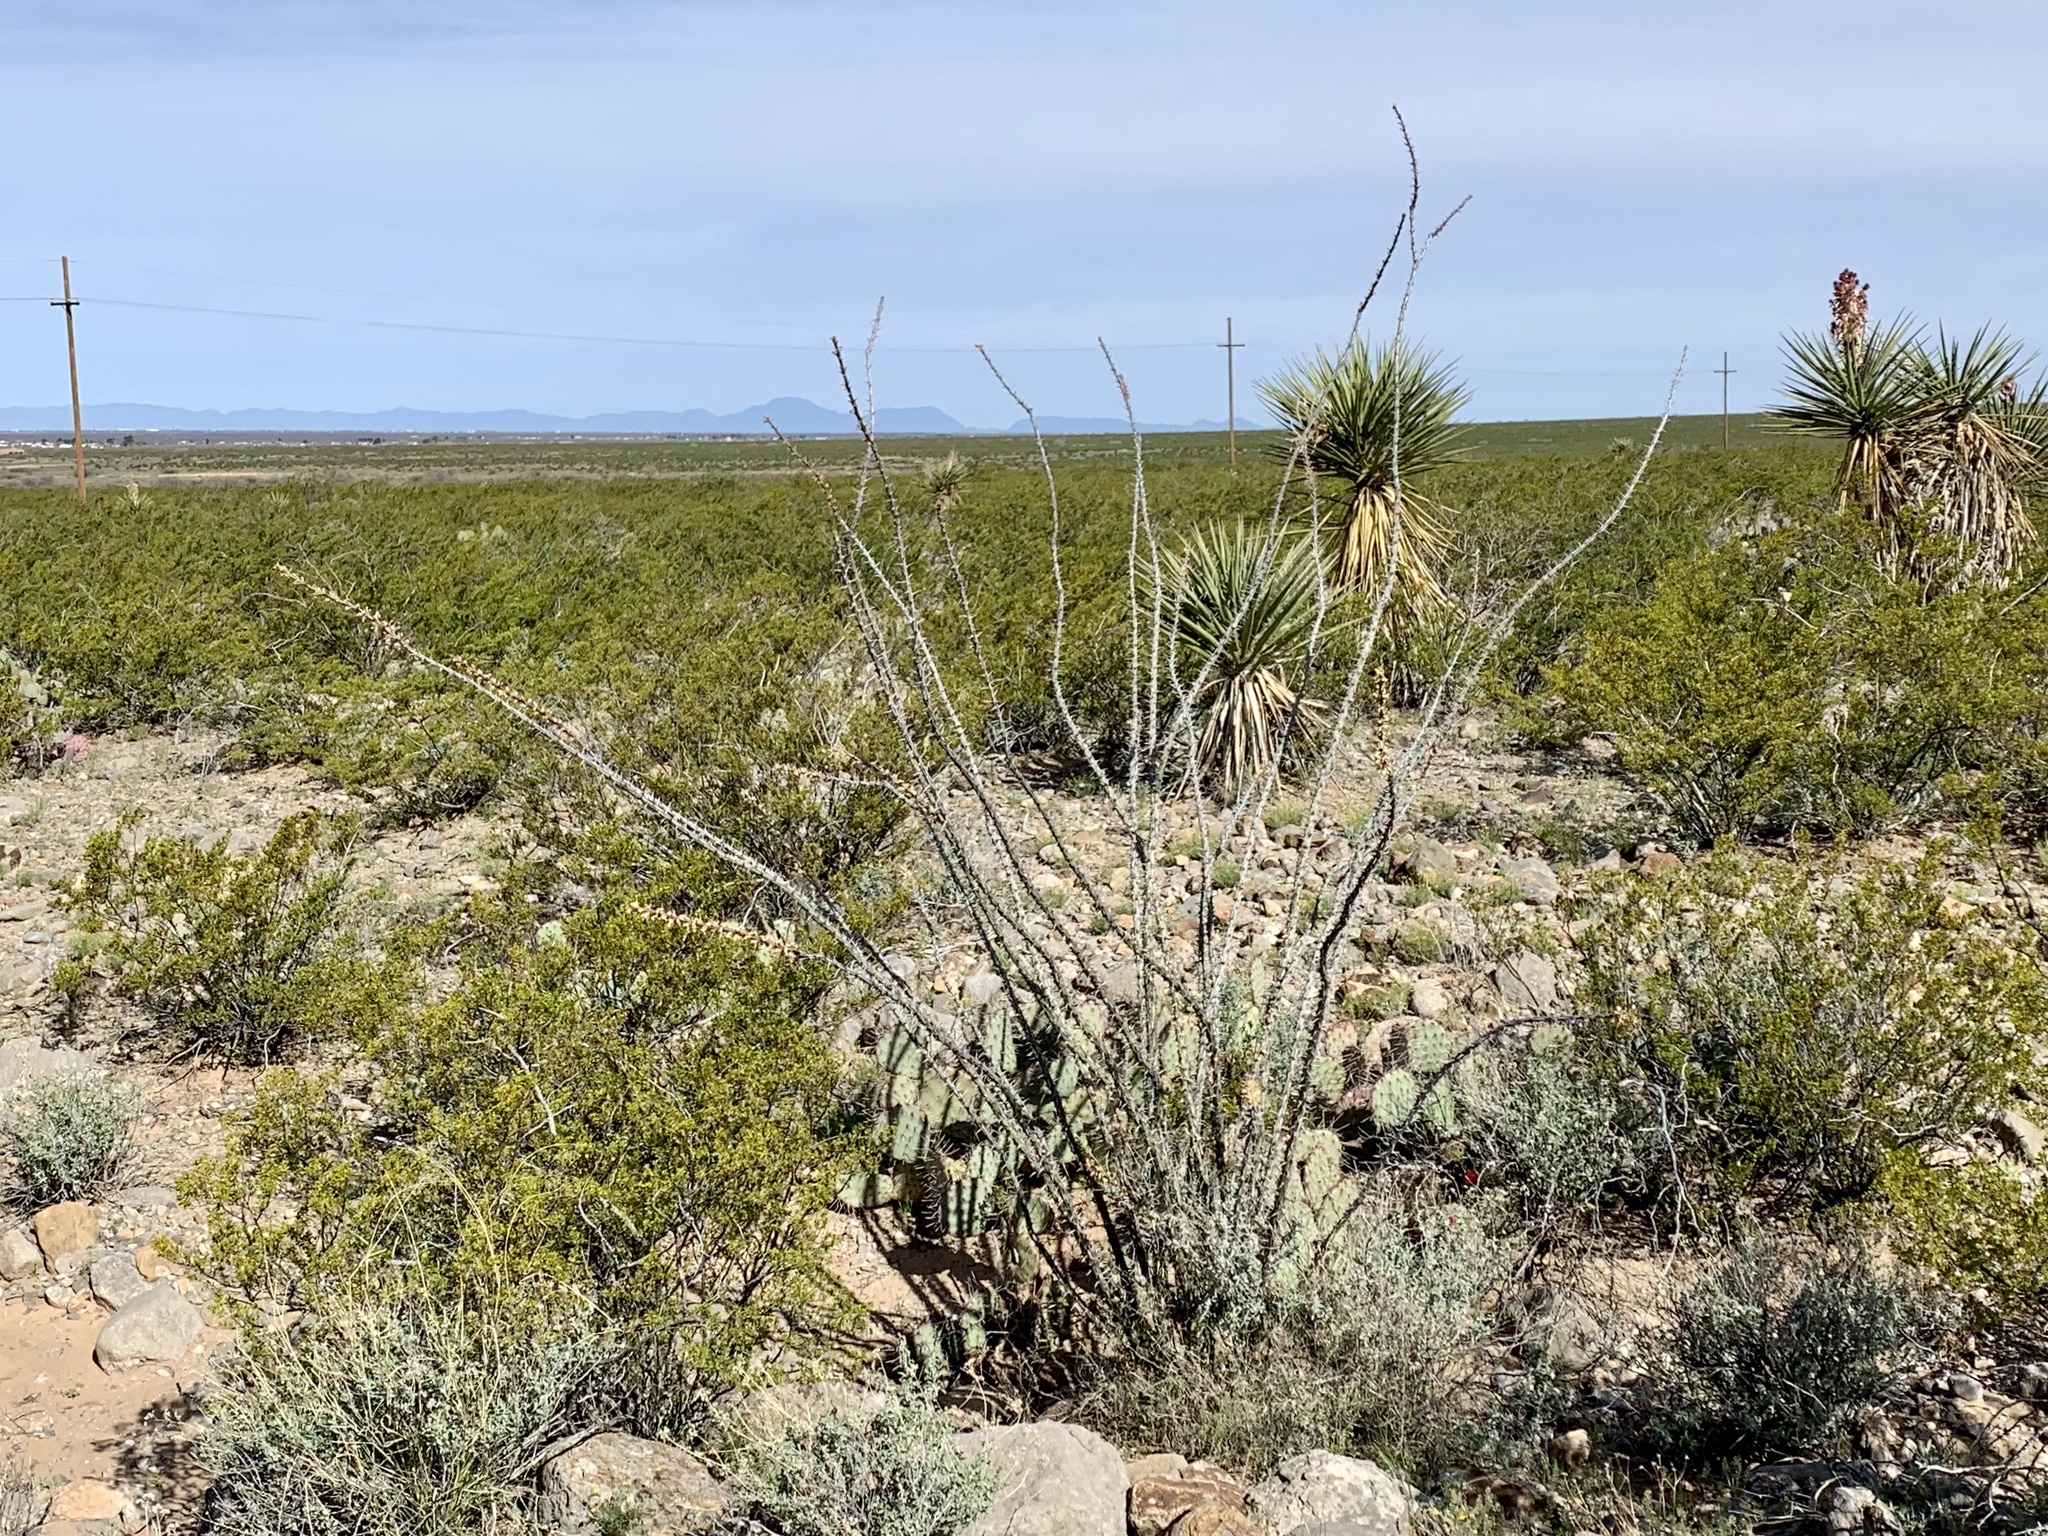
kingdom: Plantae
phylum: Tracheophyta
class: Magnoliopsida
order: Ericales
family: Fouquieriaceae
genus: Fouquieria
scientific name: Fouquieria splendens
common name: Vine-cactus
